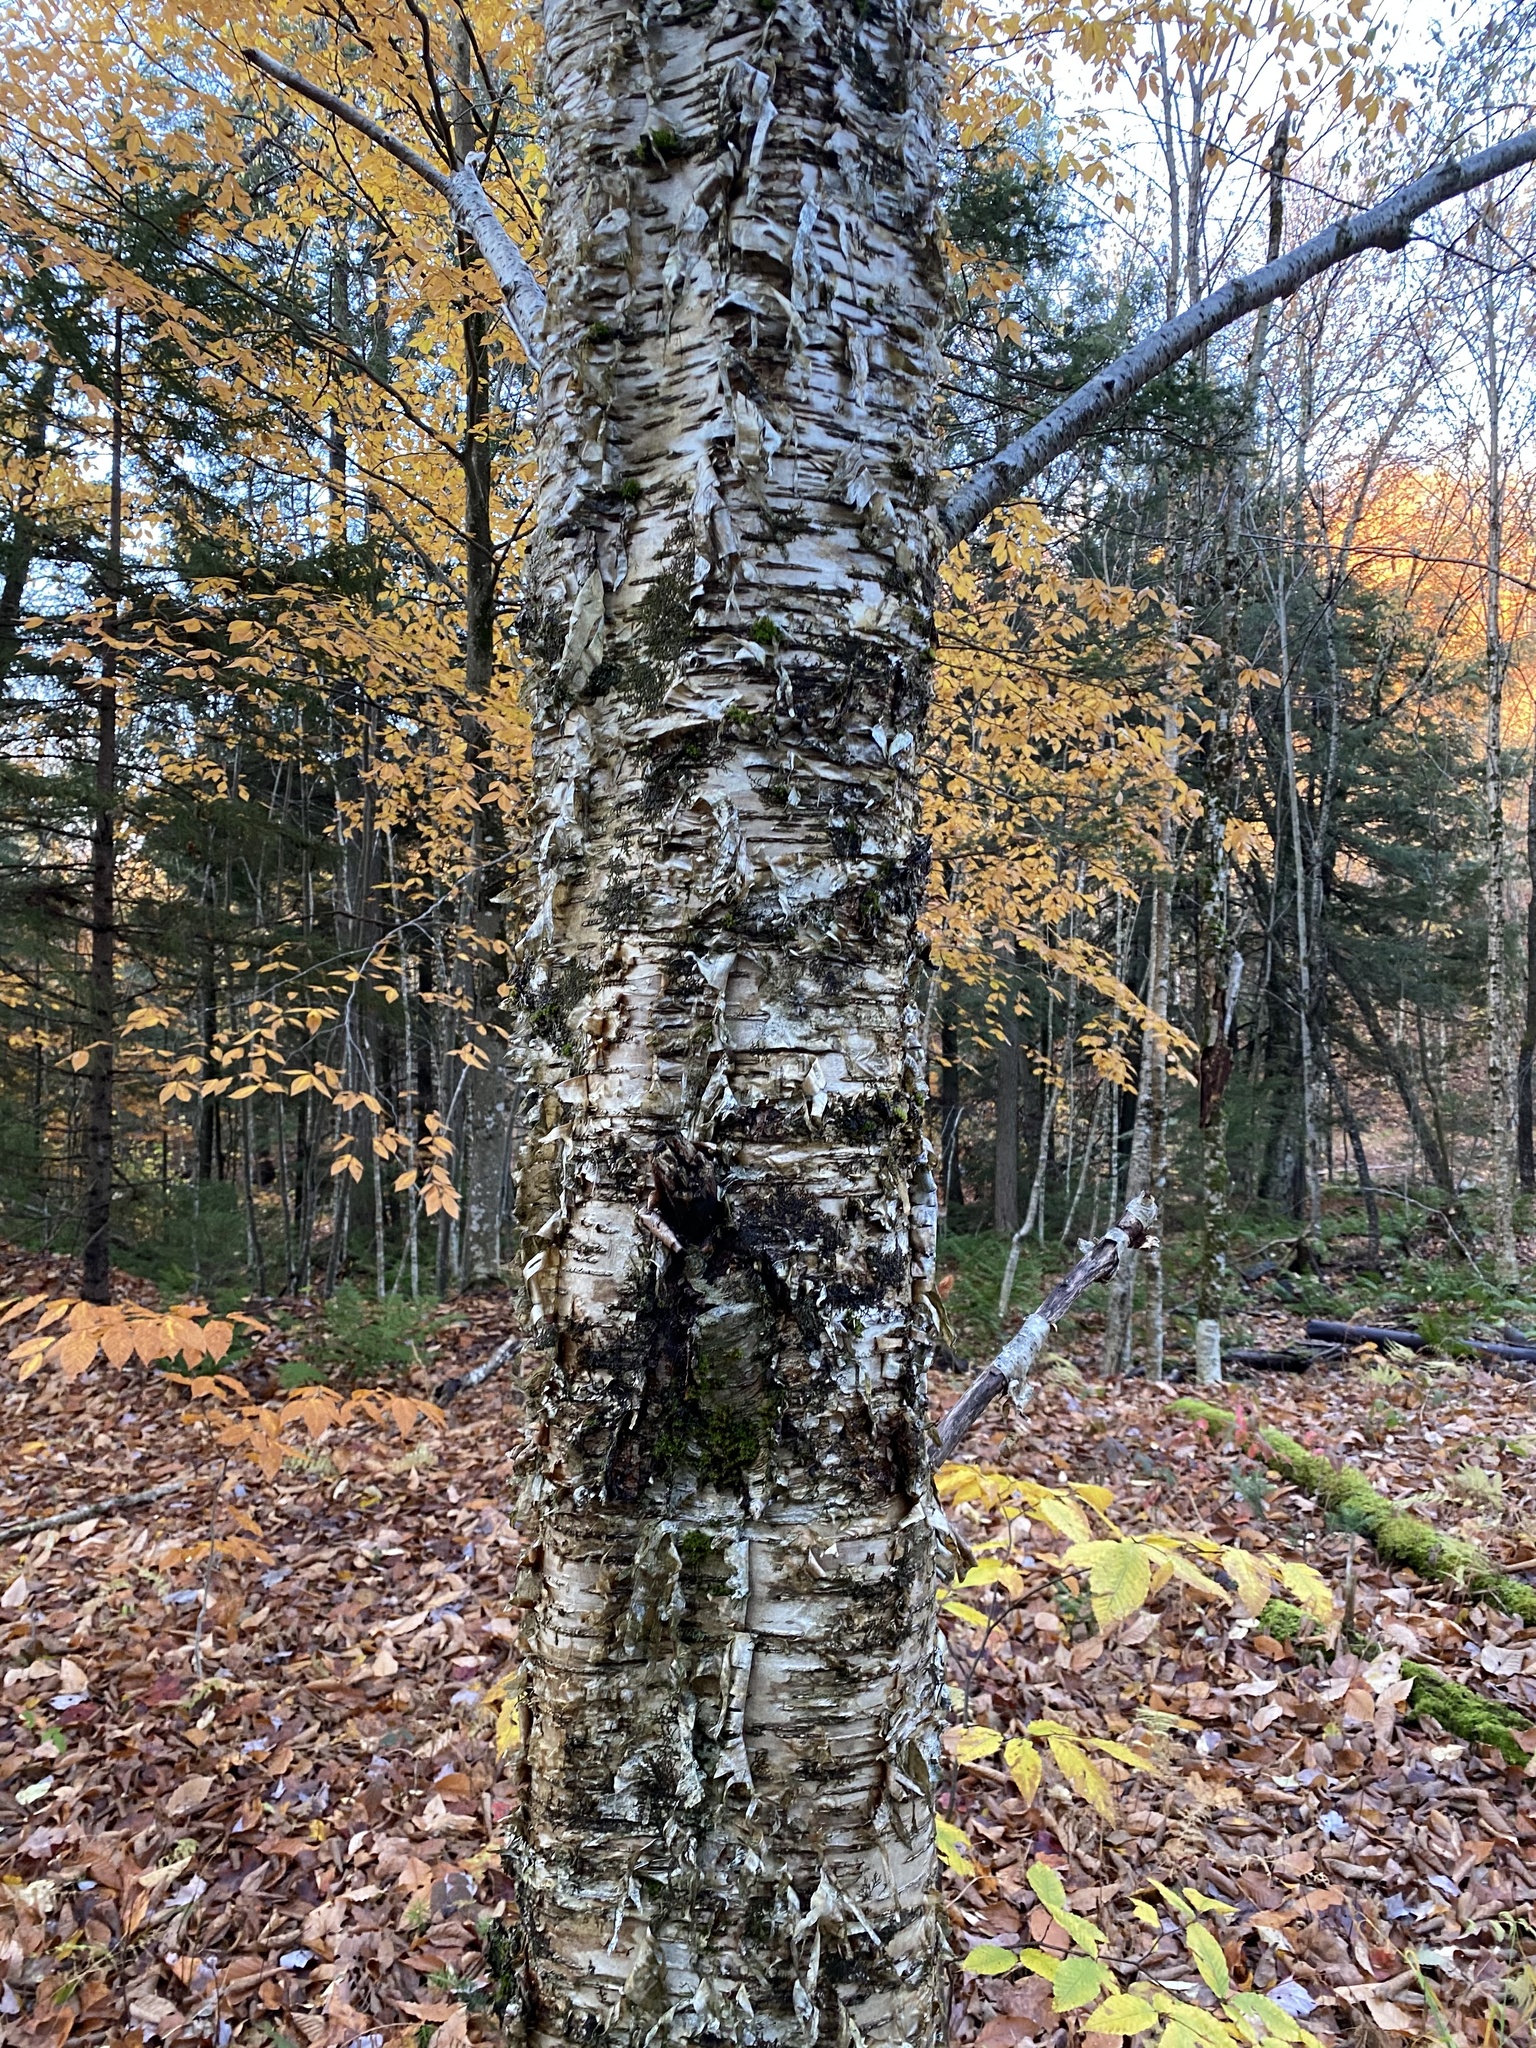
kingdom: Plantae
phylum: Tracheophyta
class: Magnoliopsida
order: Fagales
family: Betulaceae
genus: Betula
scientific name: Betula alleghaniensis
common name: Yellow birch
